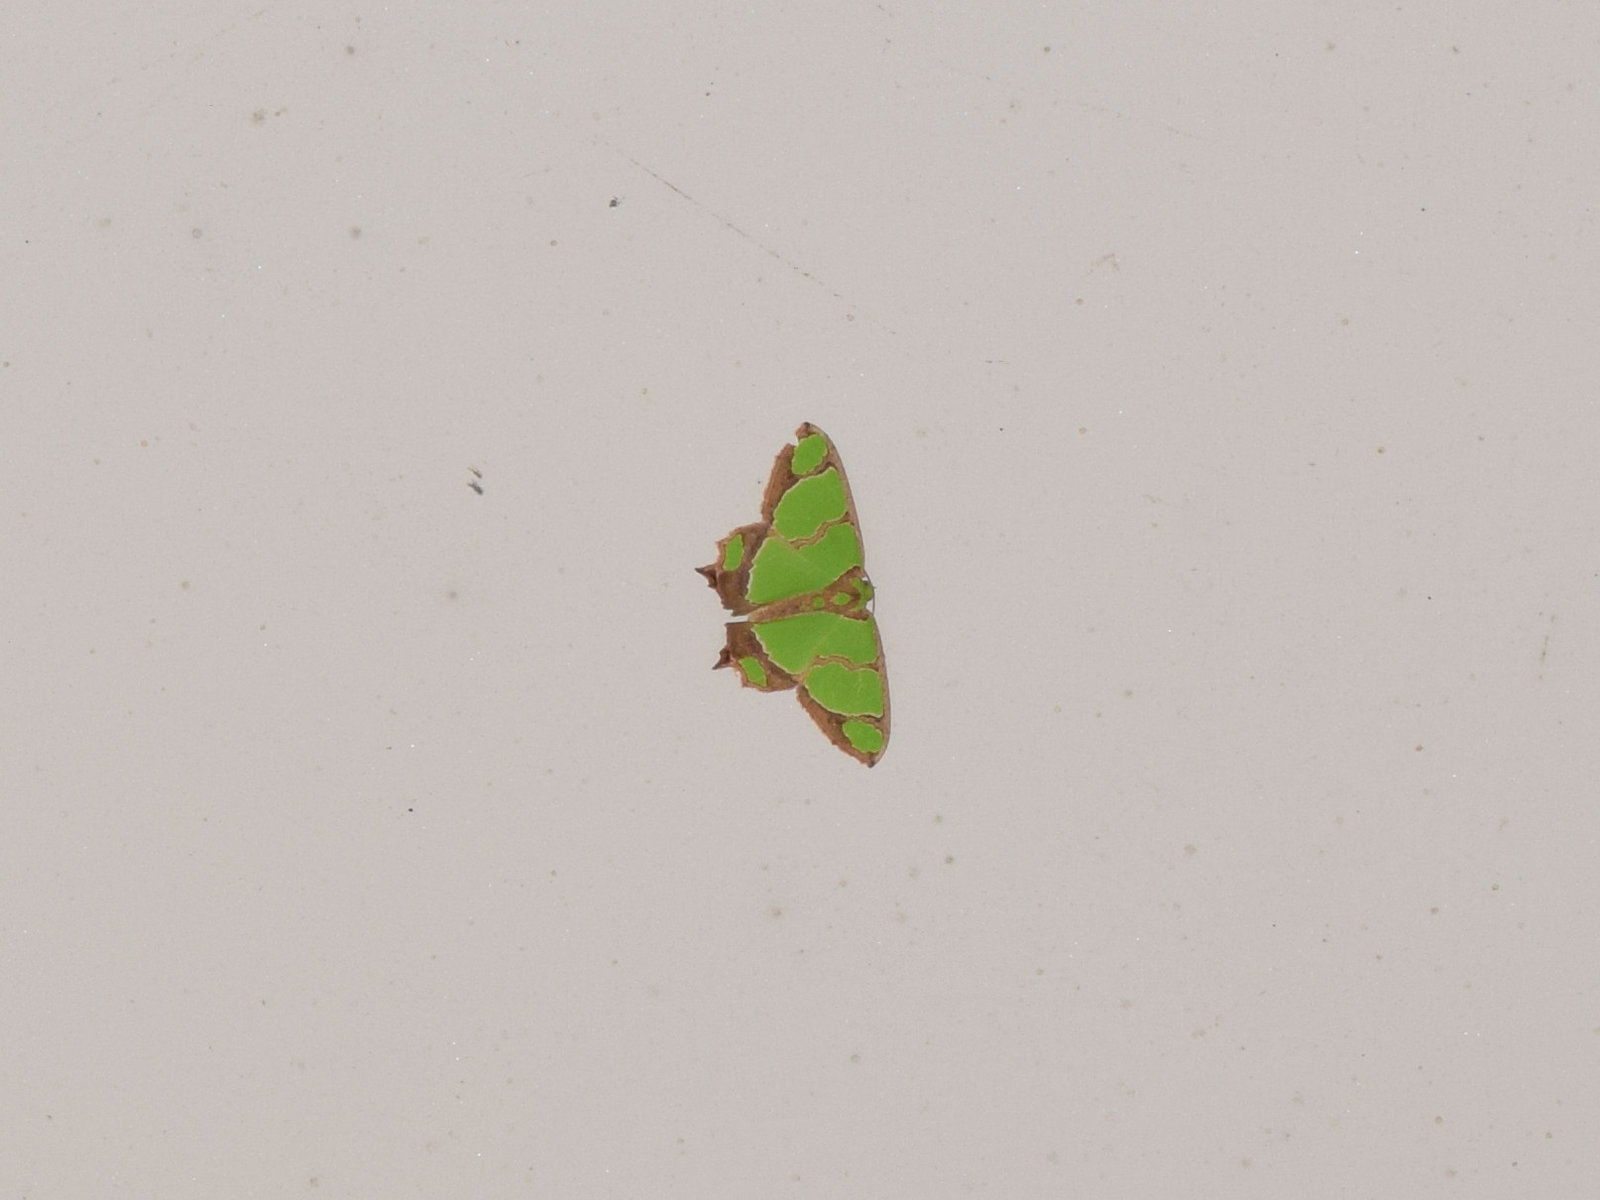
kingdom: Animalia
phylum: Arthropoda
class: Insecta
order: Lepidoptera
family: Geometridae
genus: Agathia
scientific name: Agathia hilarata
